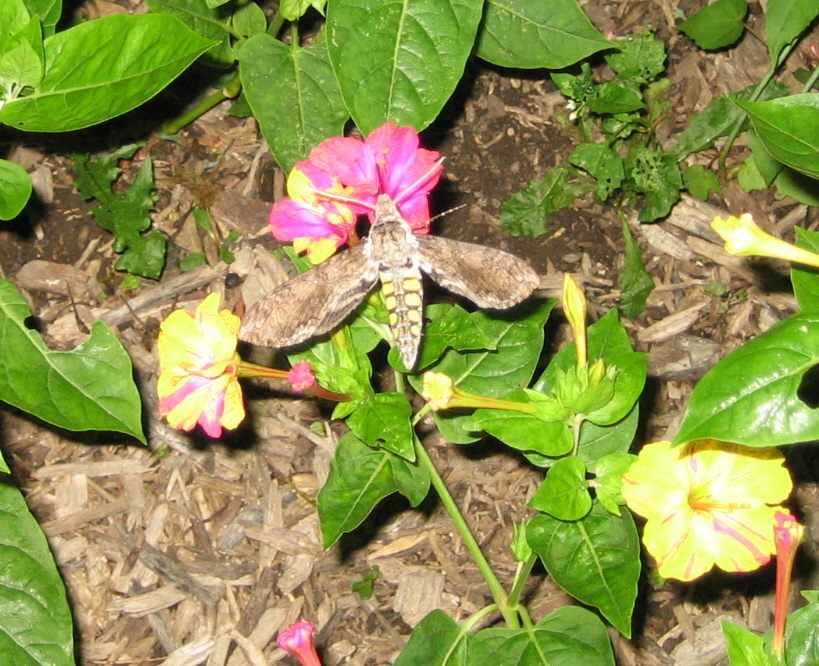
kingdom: Animalia
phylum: Arthropoda
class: Insecta
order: Lepidoptera
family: Sphingidae
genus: Manduca
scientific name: Manduca sexta
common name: Carolina sphinx
